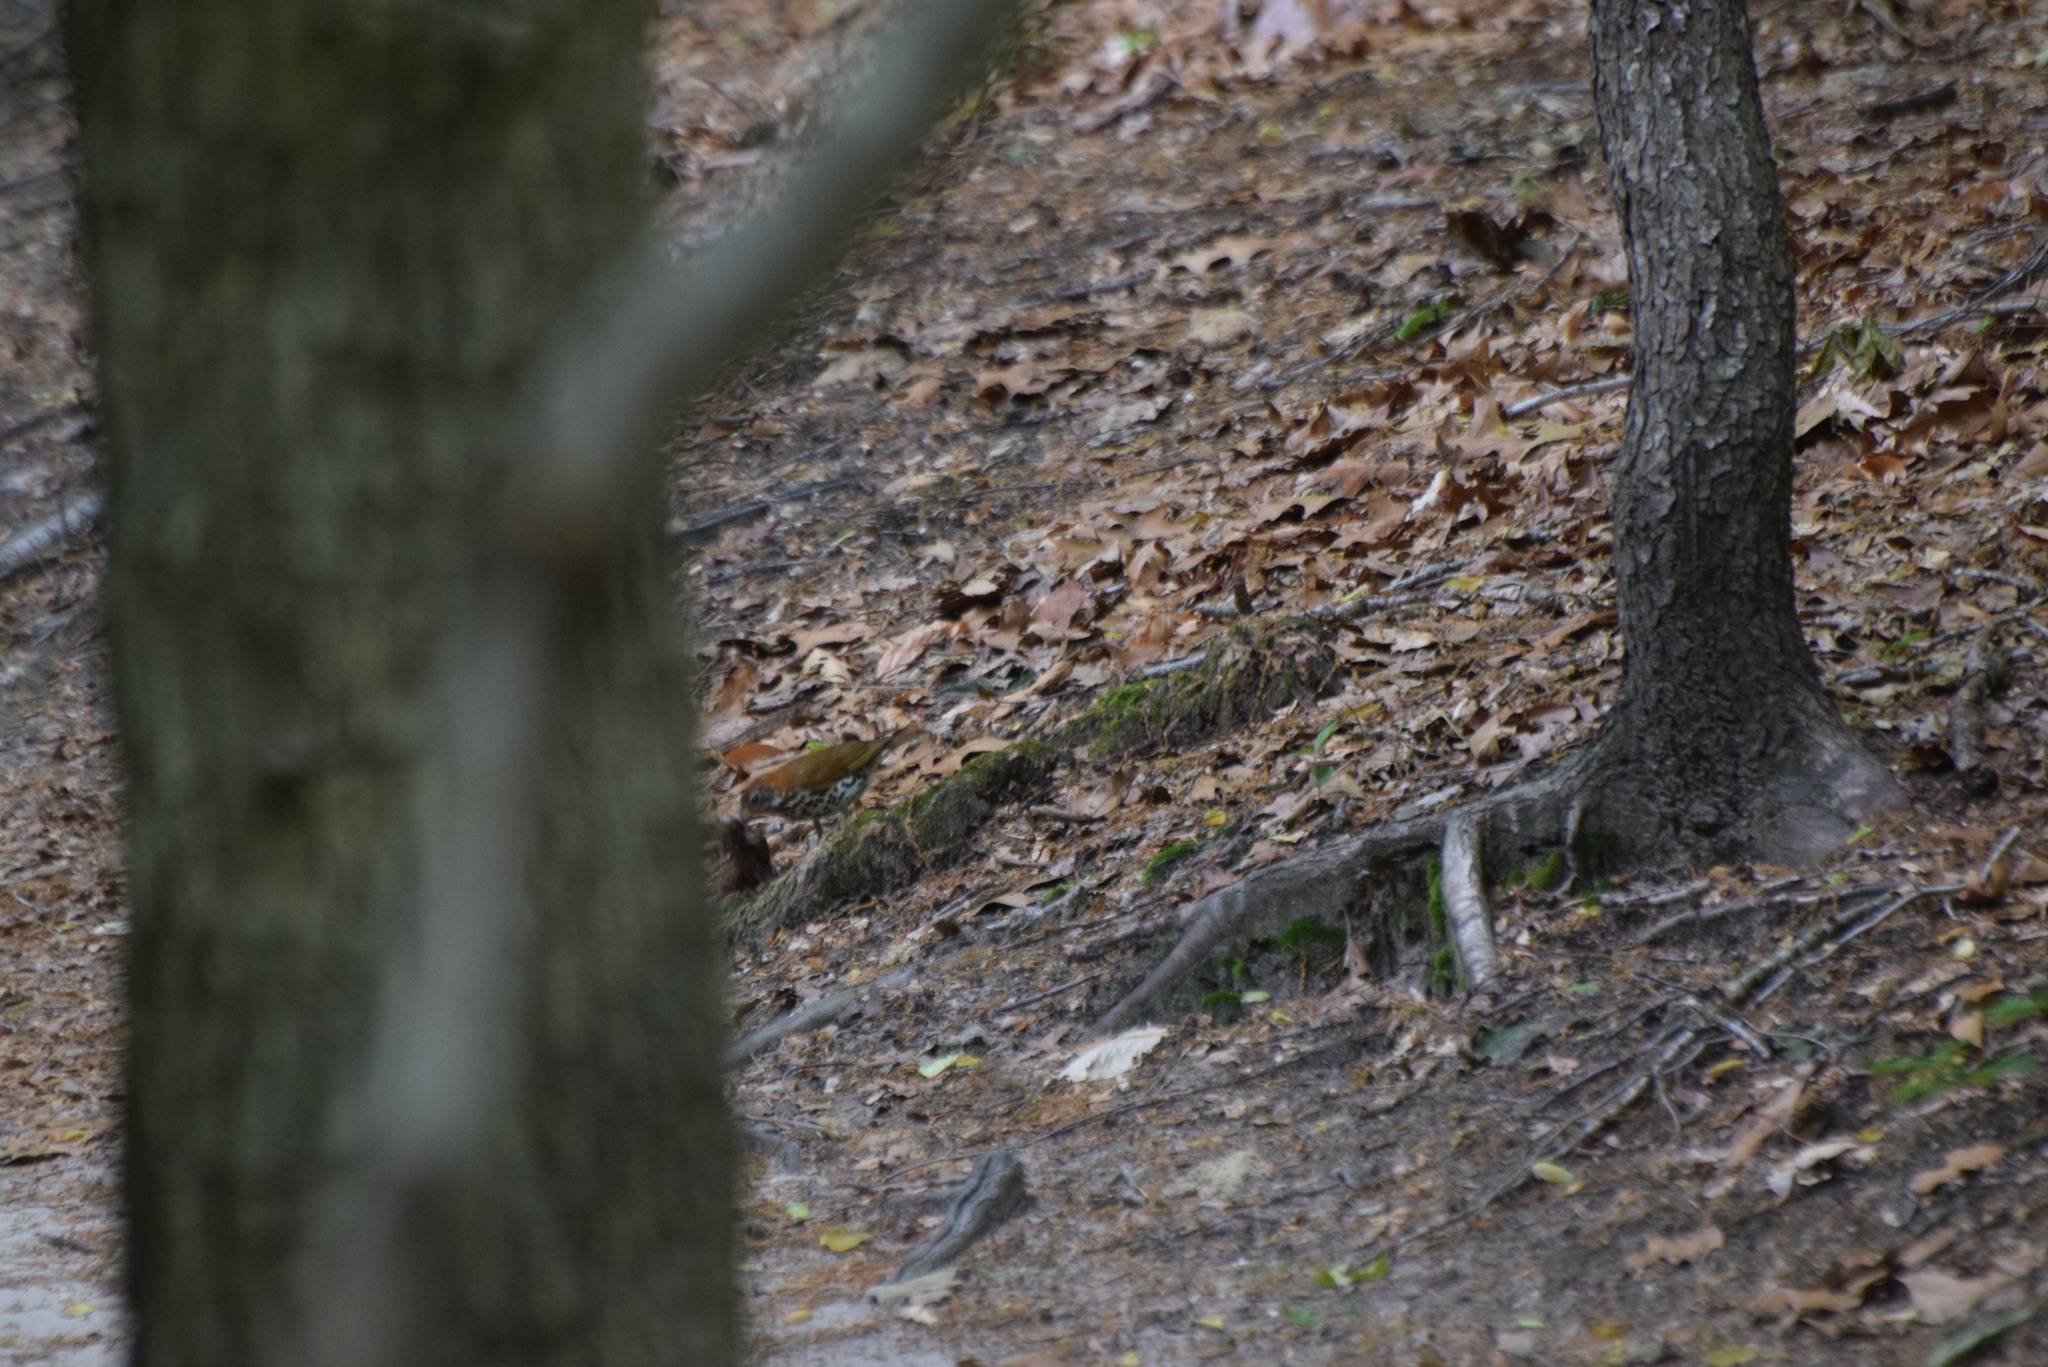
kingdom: Animalia
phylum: Chordata
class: Aves
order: Passeriformes
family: Turdidae
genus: Hylocichla
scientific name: Hylocichla mustelina
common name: Wood thrush
